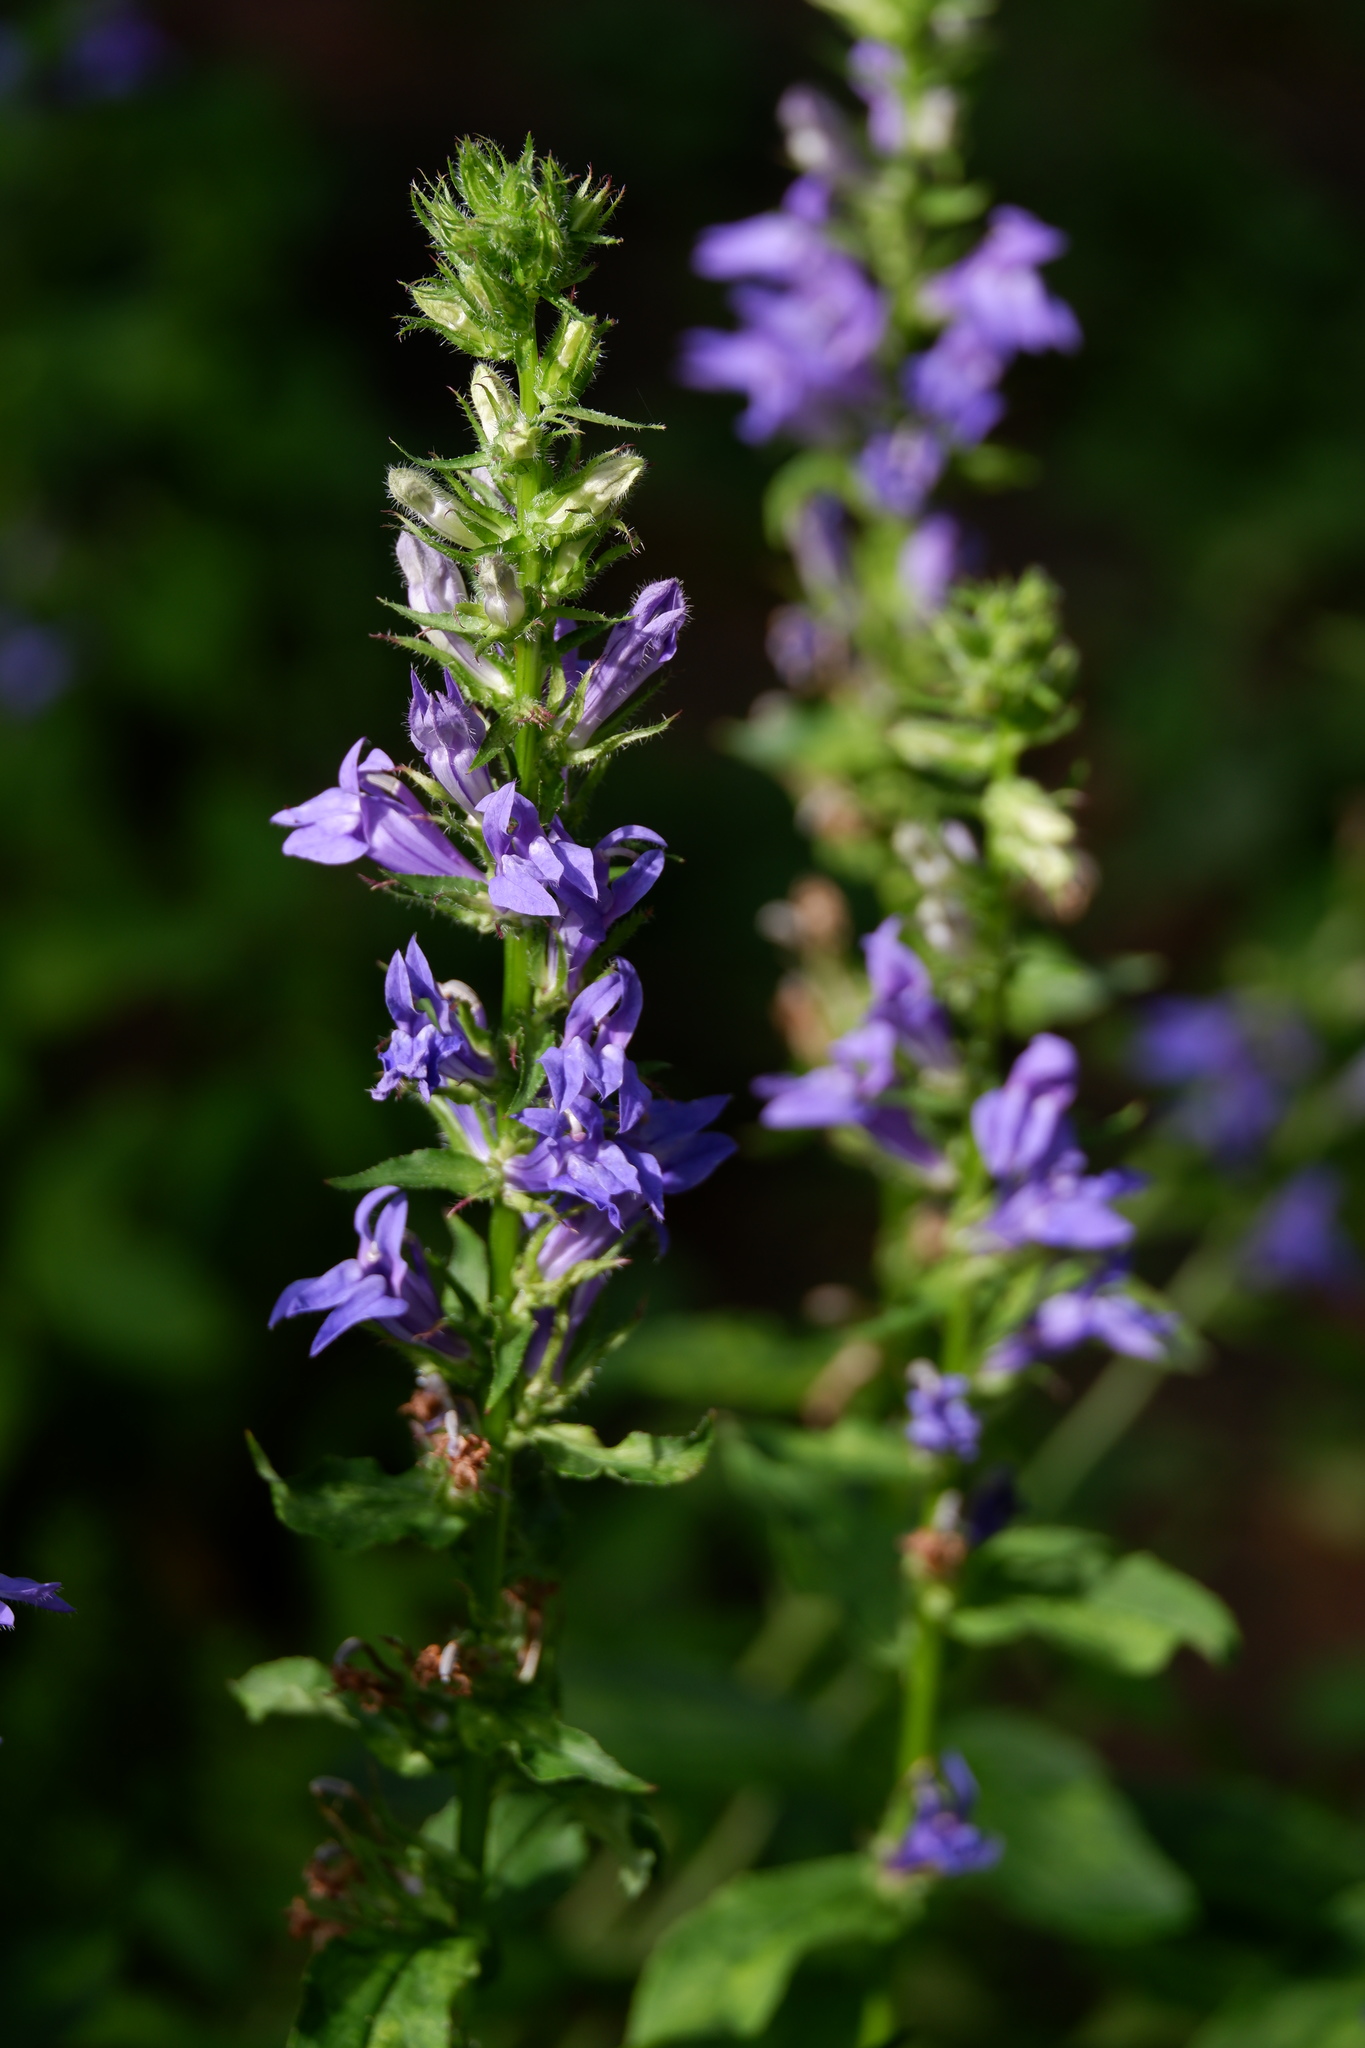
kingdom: Plantae
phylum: Tracheophyta
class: Magnoliopsida
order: Asterales
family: Campanulaceae
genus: Lobelia
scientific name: Lobelia siphilitica
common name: Great lobelia
